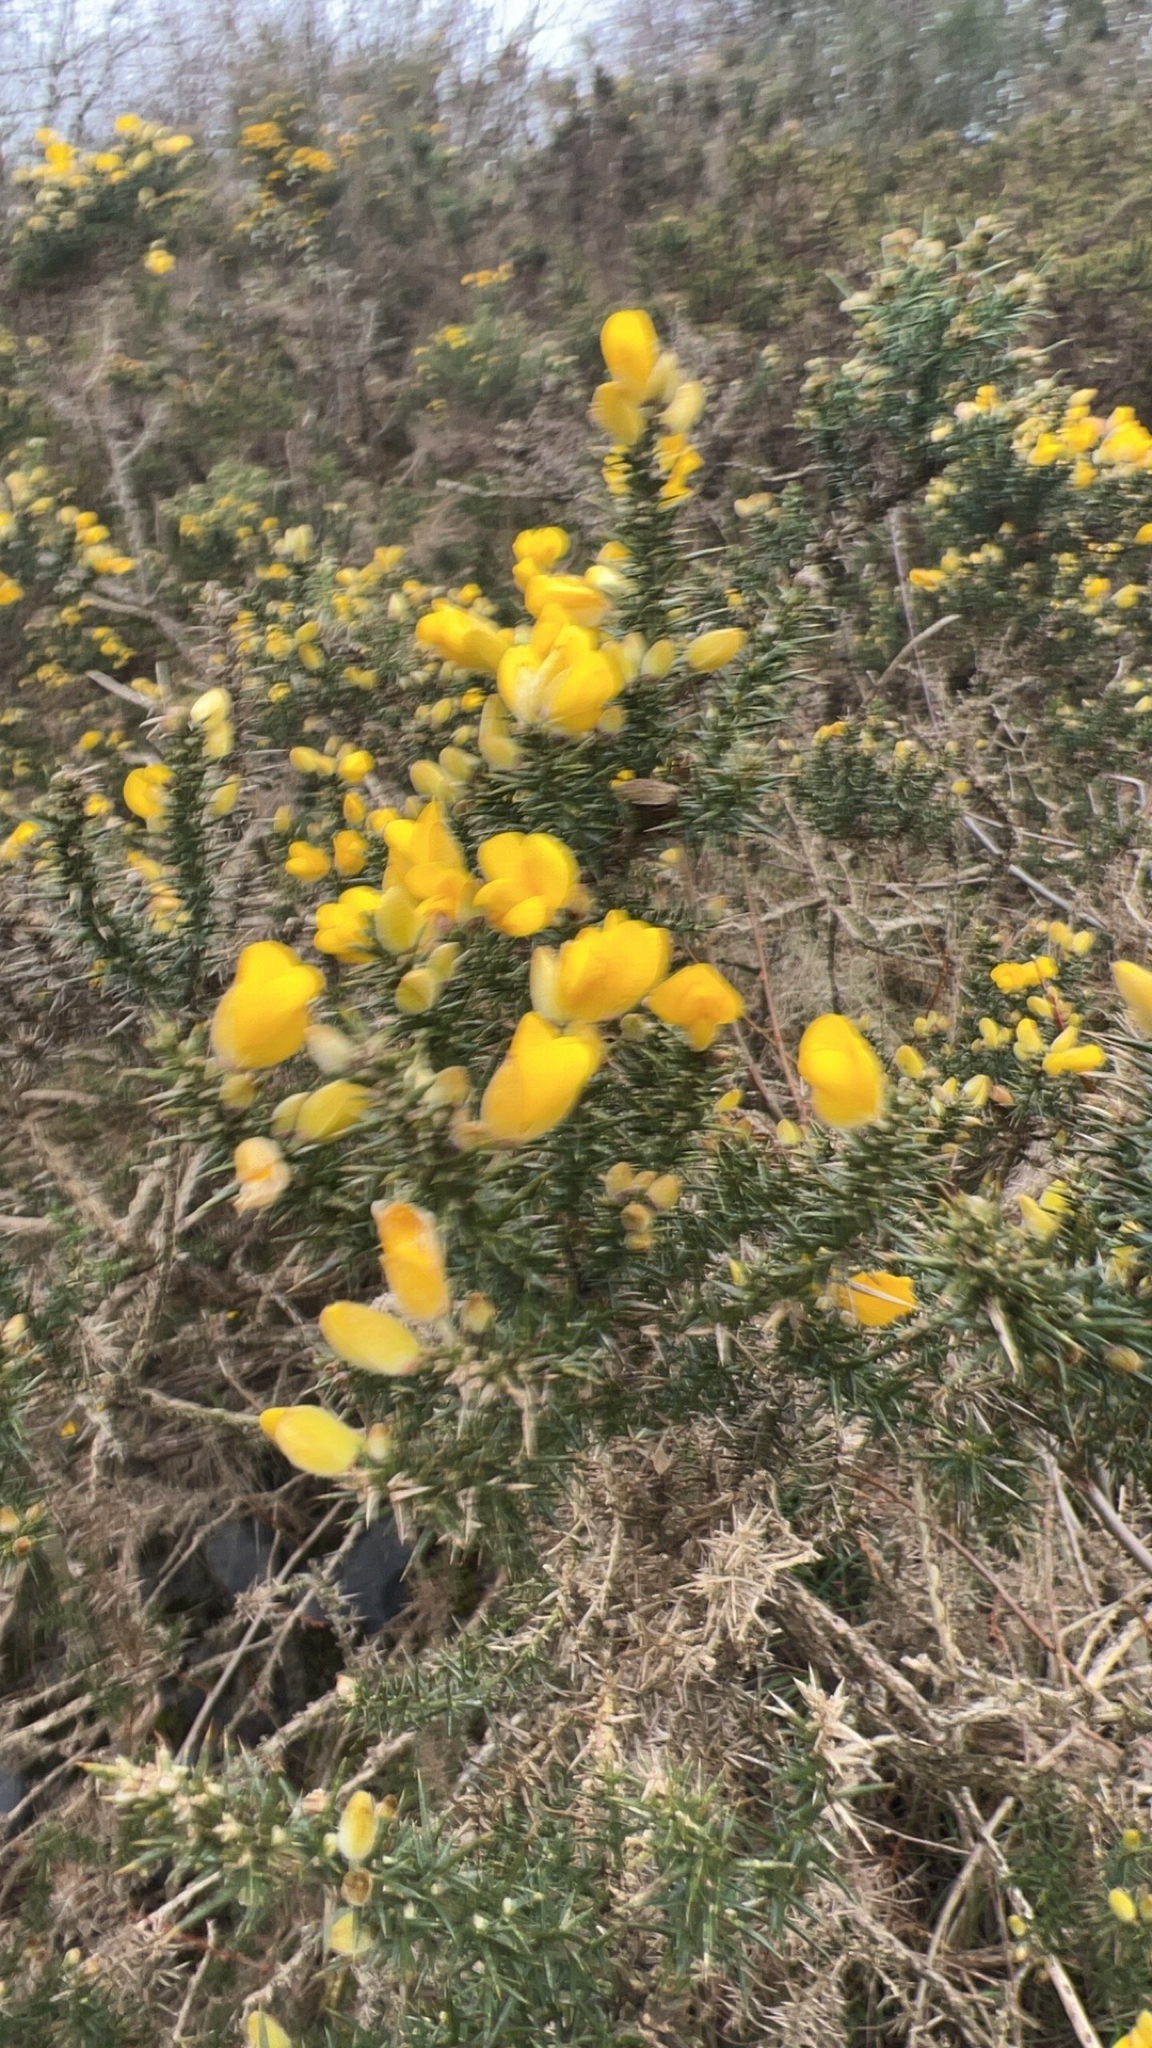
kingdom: Plantae
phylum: Tracheophyta
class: Magnoliopsida
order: Fabales
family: Fabaceae
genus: Ulex
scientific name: Ulex europaeus
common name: Common gorse
